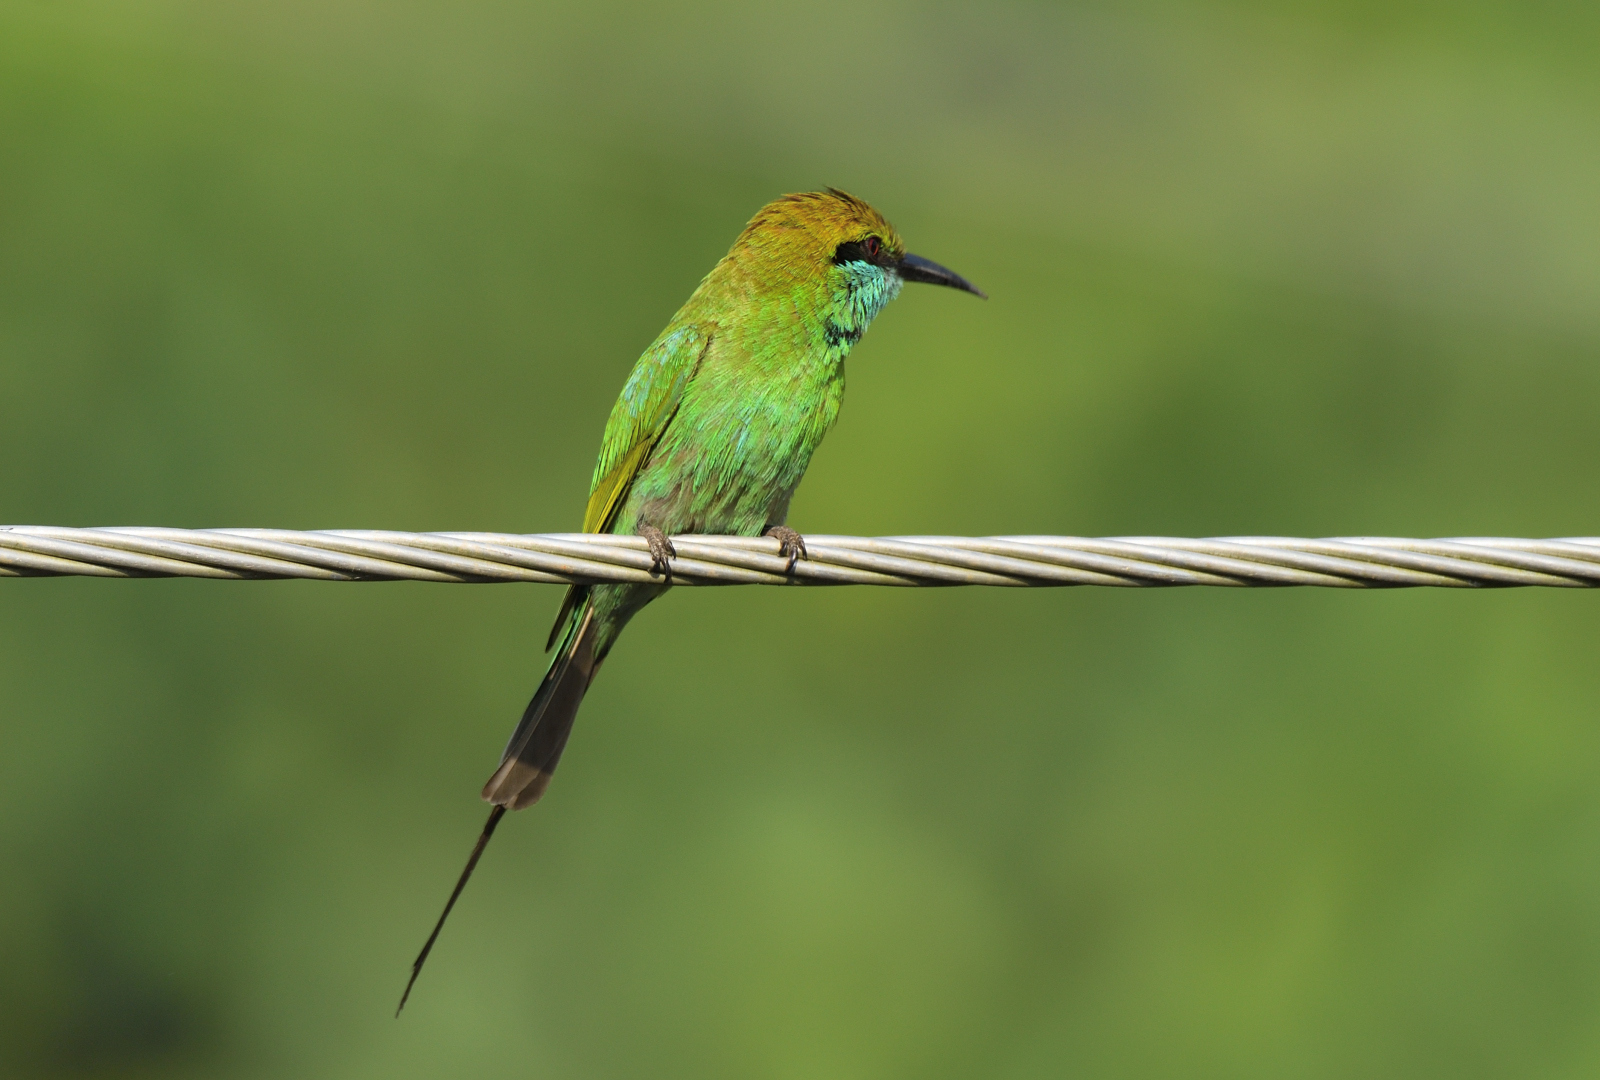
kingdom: Animalia
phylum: Chordata
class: Aves
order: Coraciiformes
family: Meropidae
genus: Merops
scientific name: Merops orientalis
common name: Green bee-eater
